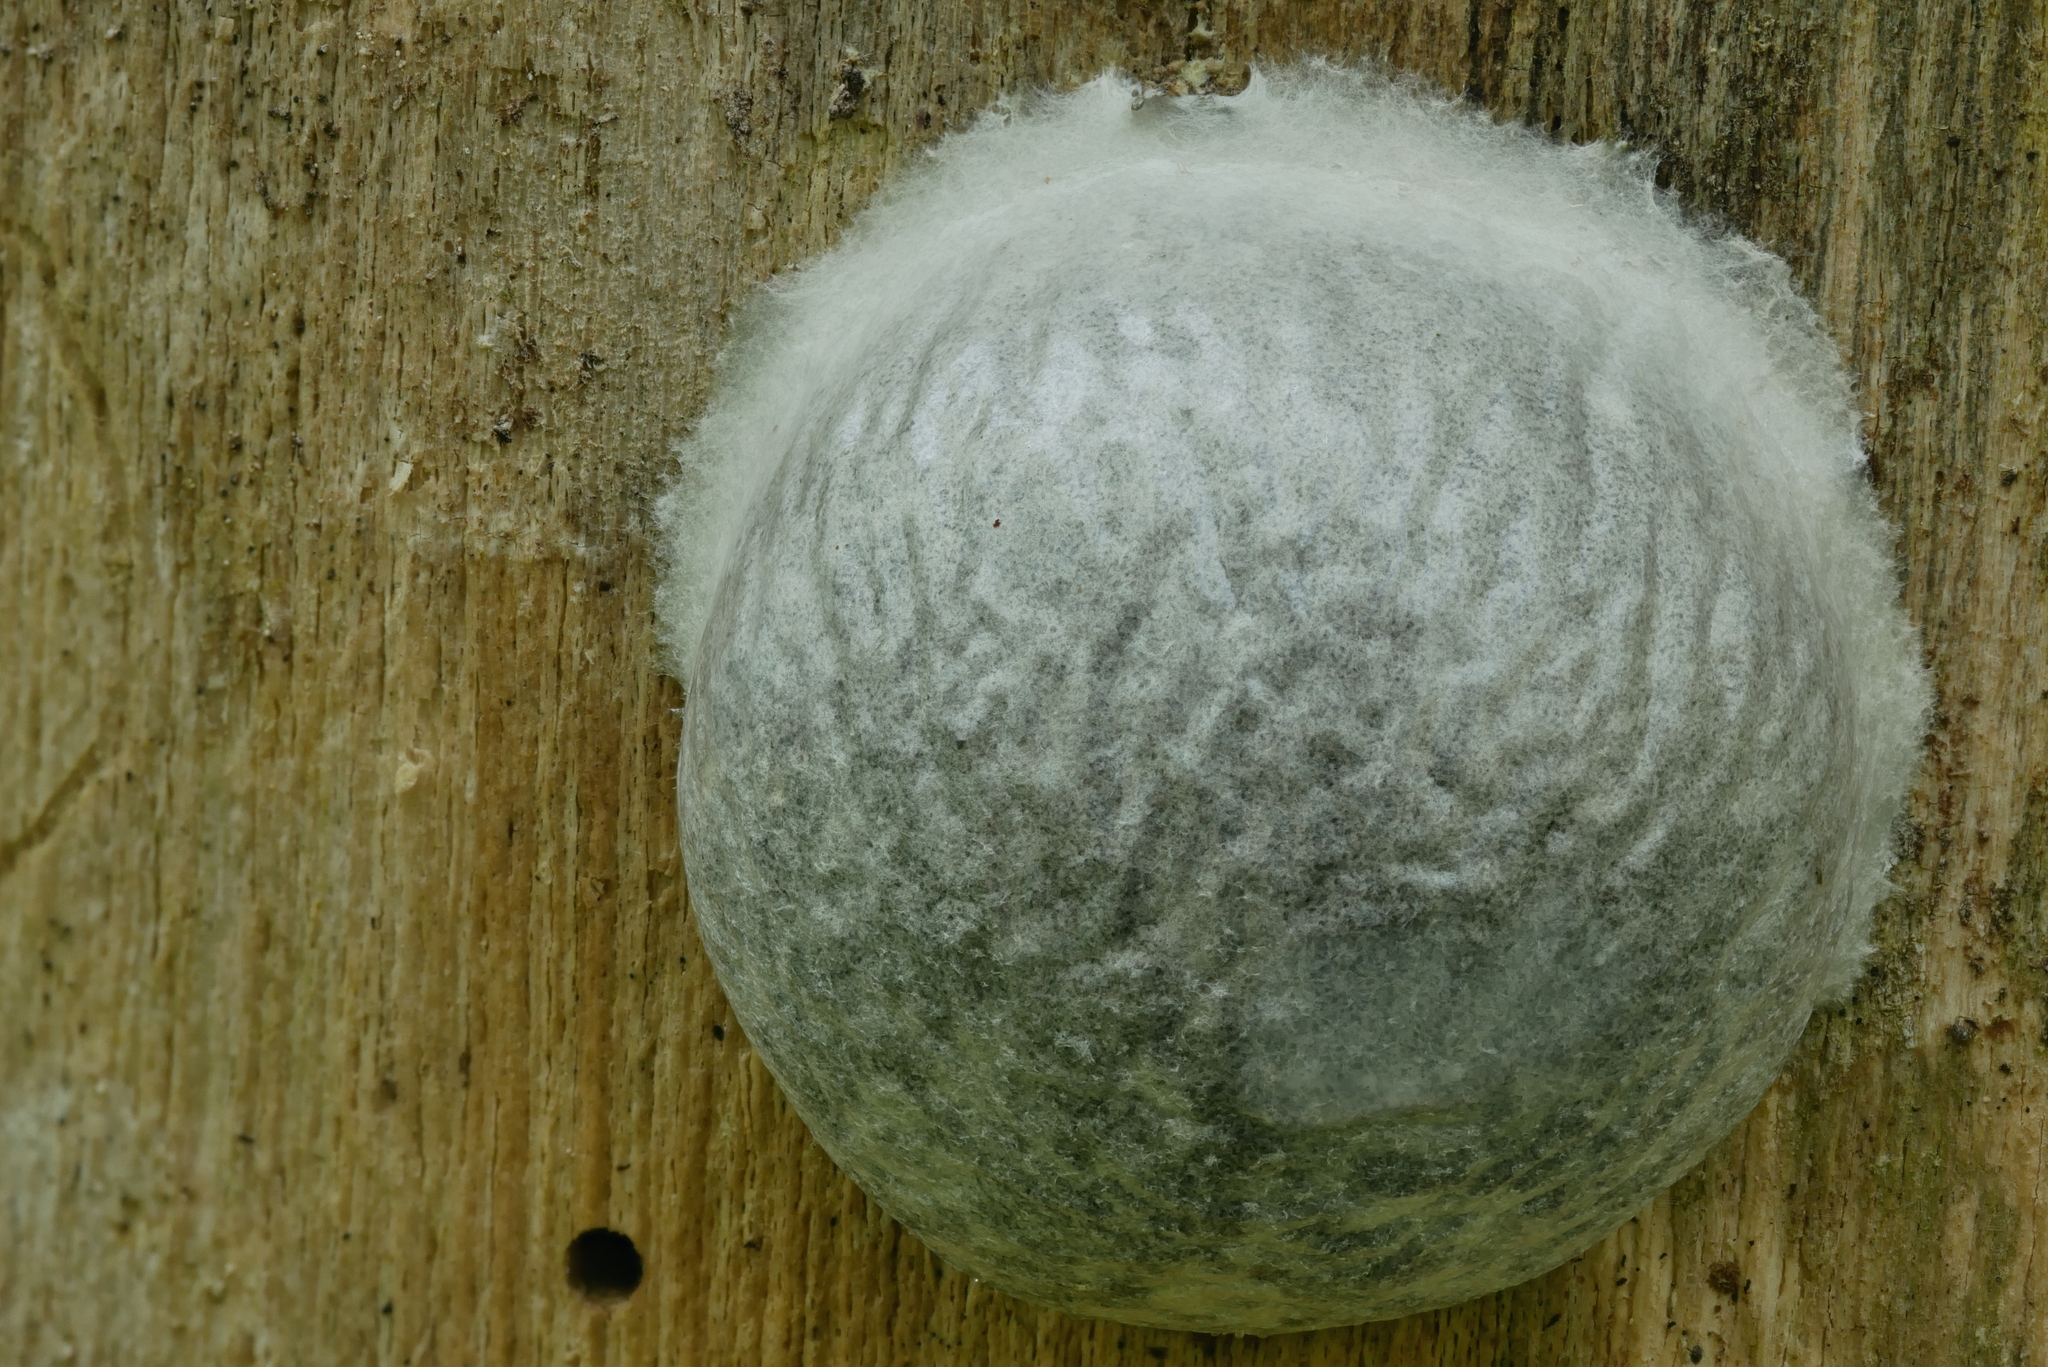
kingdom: Protozoa
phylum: Mycetozoa
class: Myxomycetes
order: Cribrariales
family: Tubiferaceae
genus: Reticularia
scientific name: Reticularia lycoperdon
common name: False puffball
